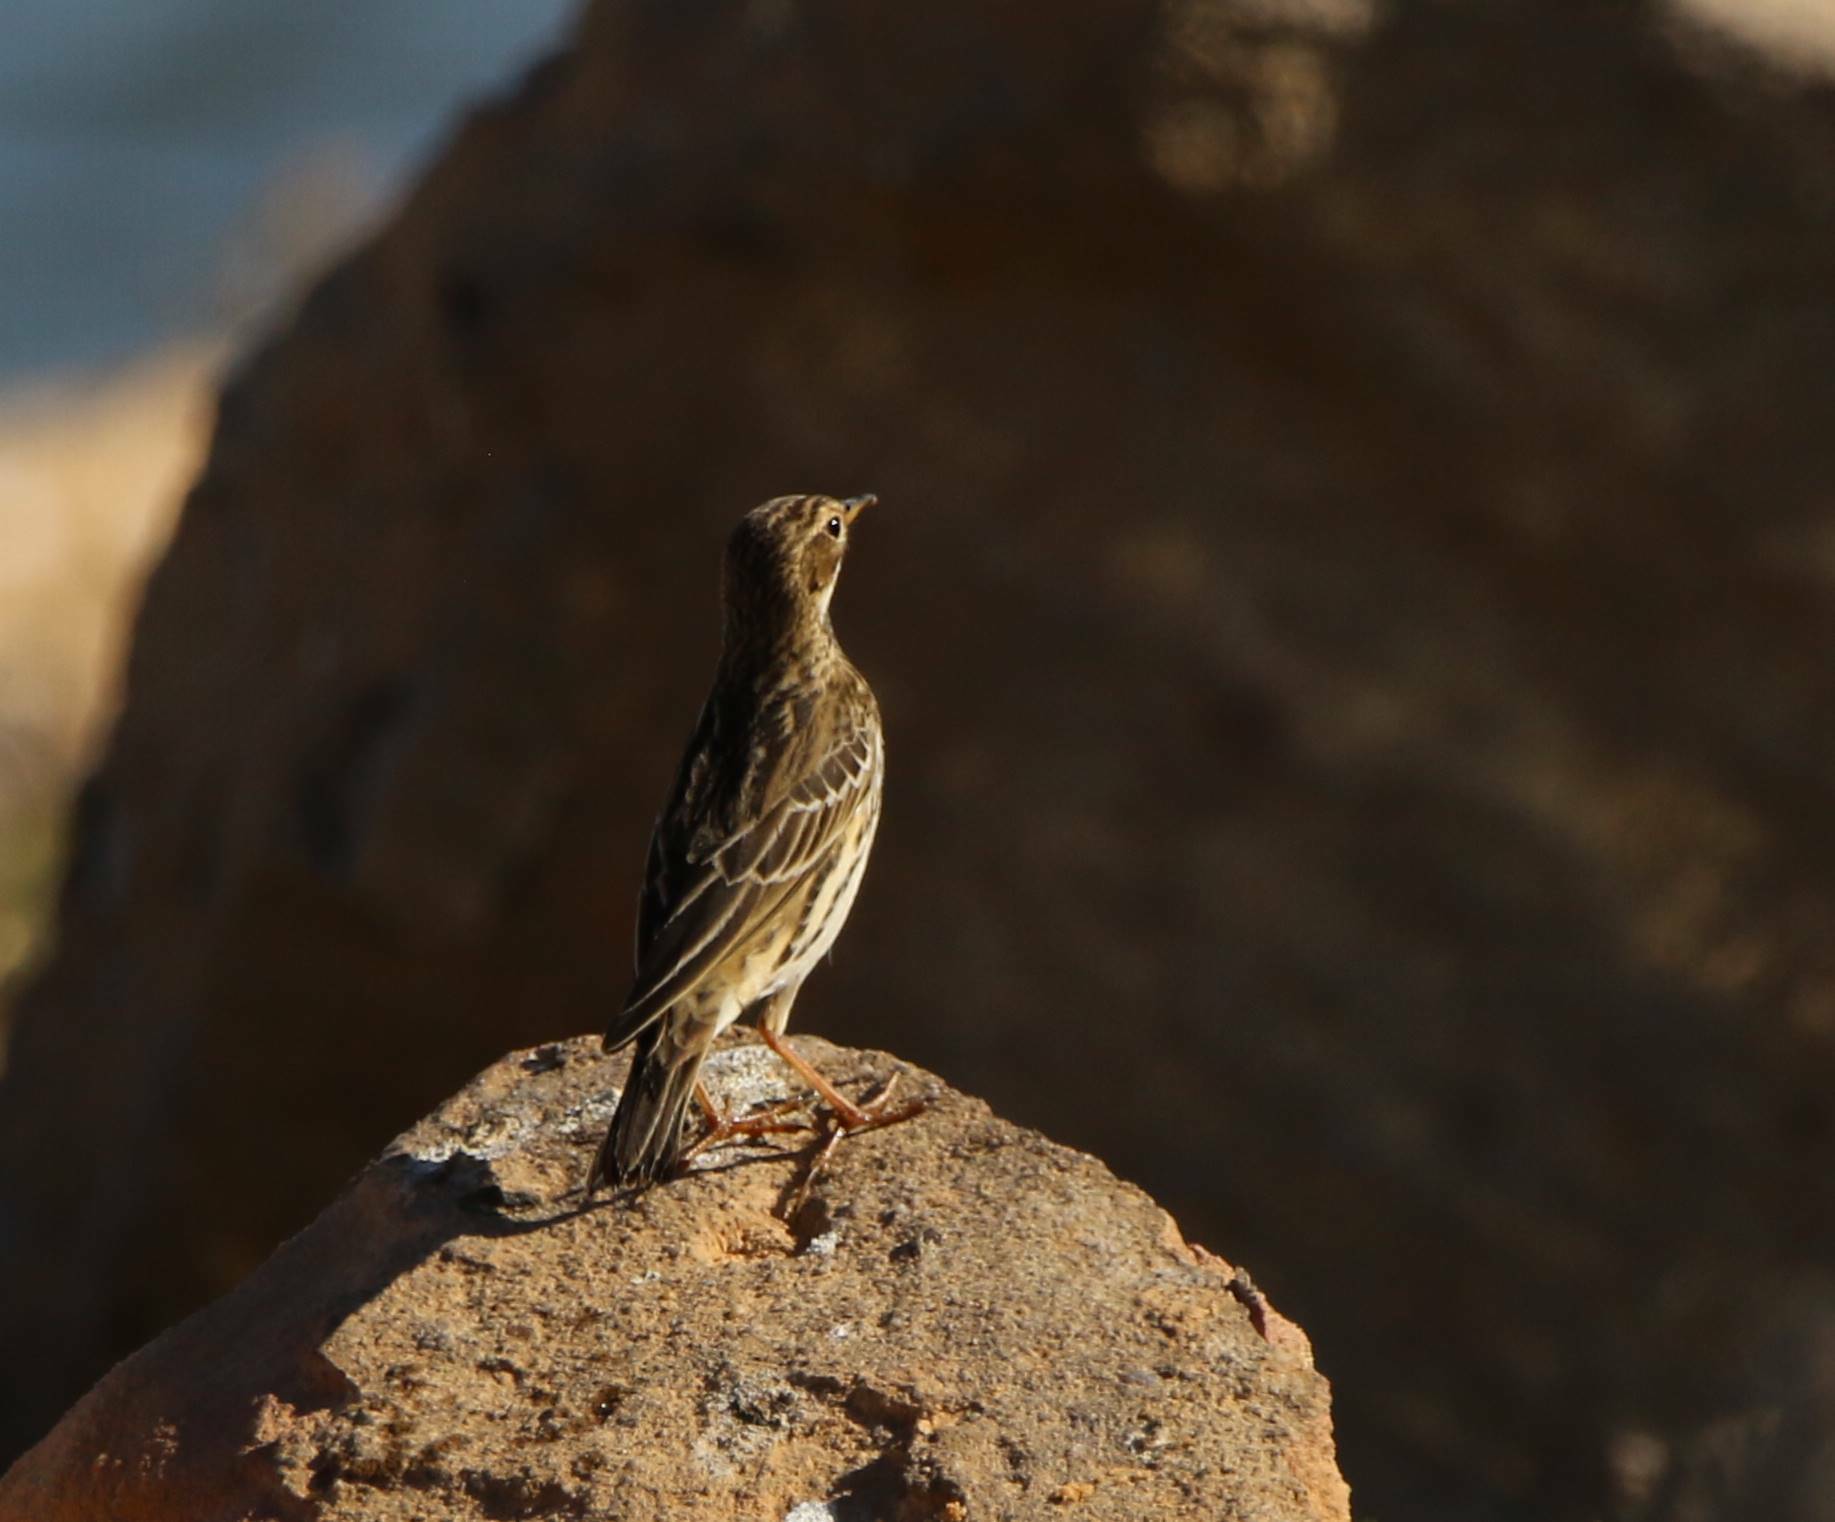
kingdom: Animalia
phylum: Chordata
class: Aves
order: Passeriformes
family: Motacillidae
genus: Anthus
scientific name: Anthus cervinus
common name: Red-throated pipit
